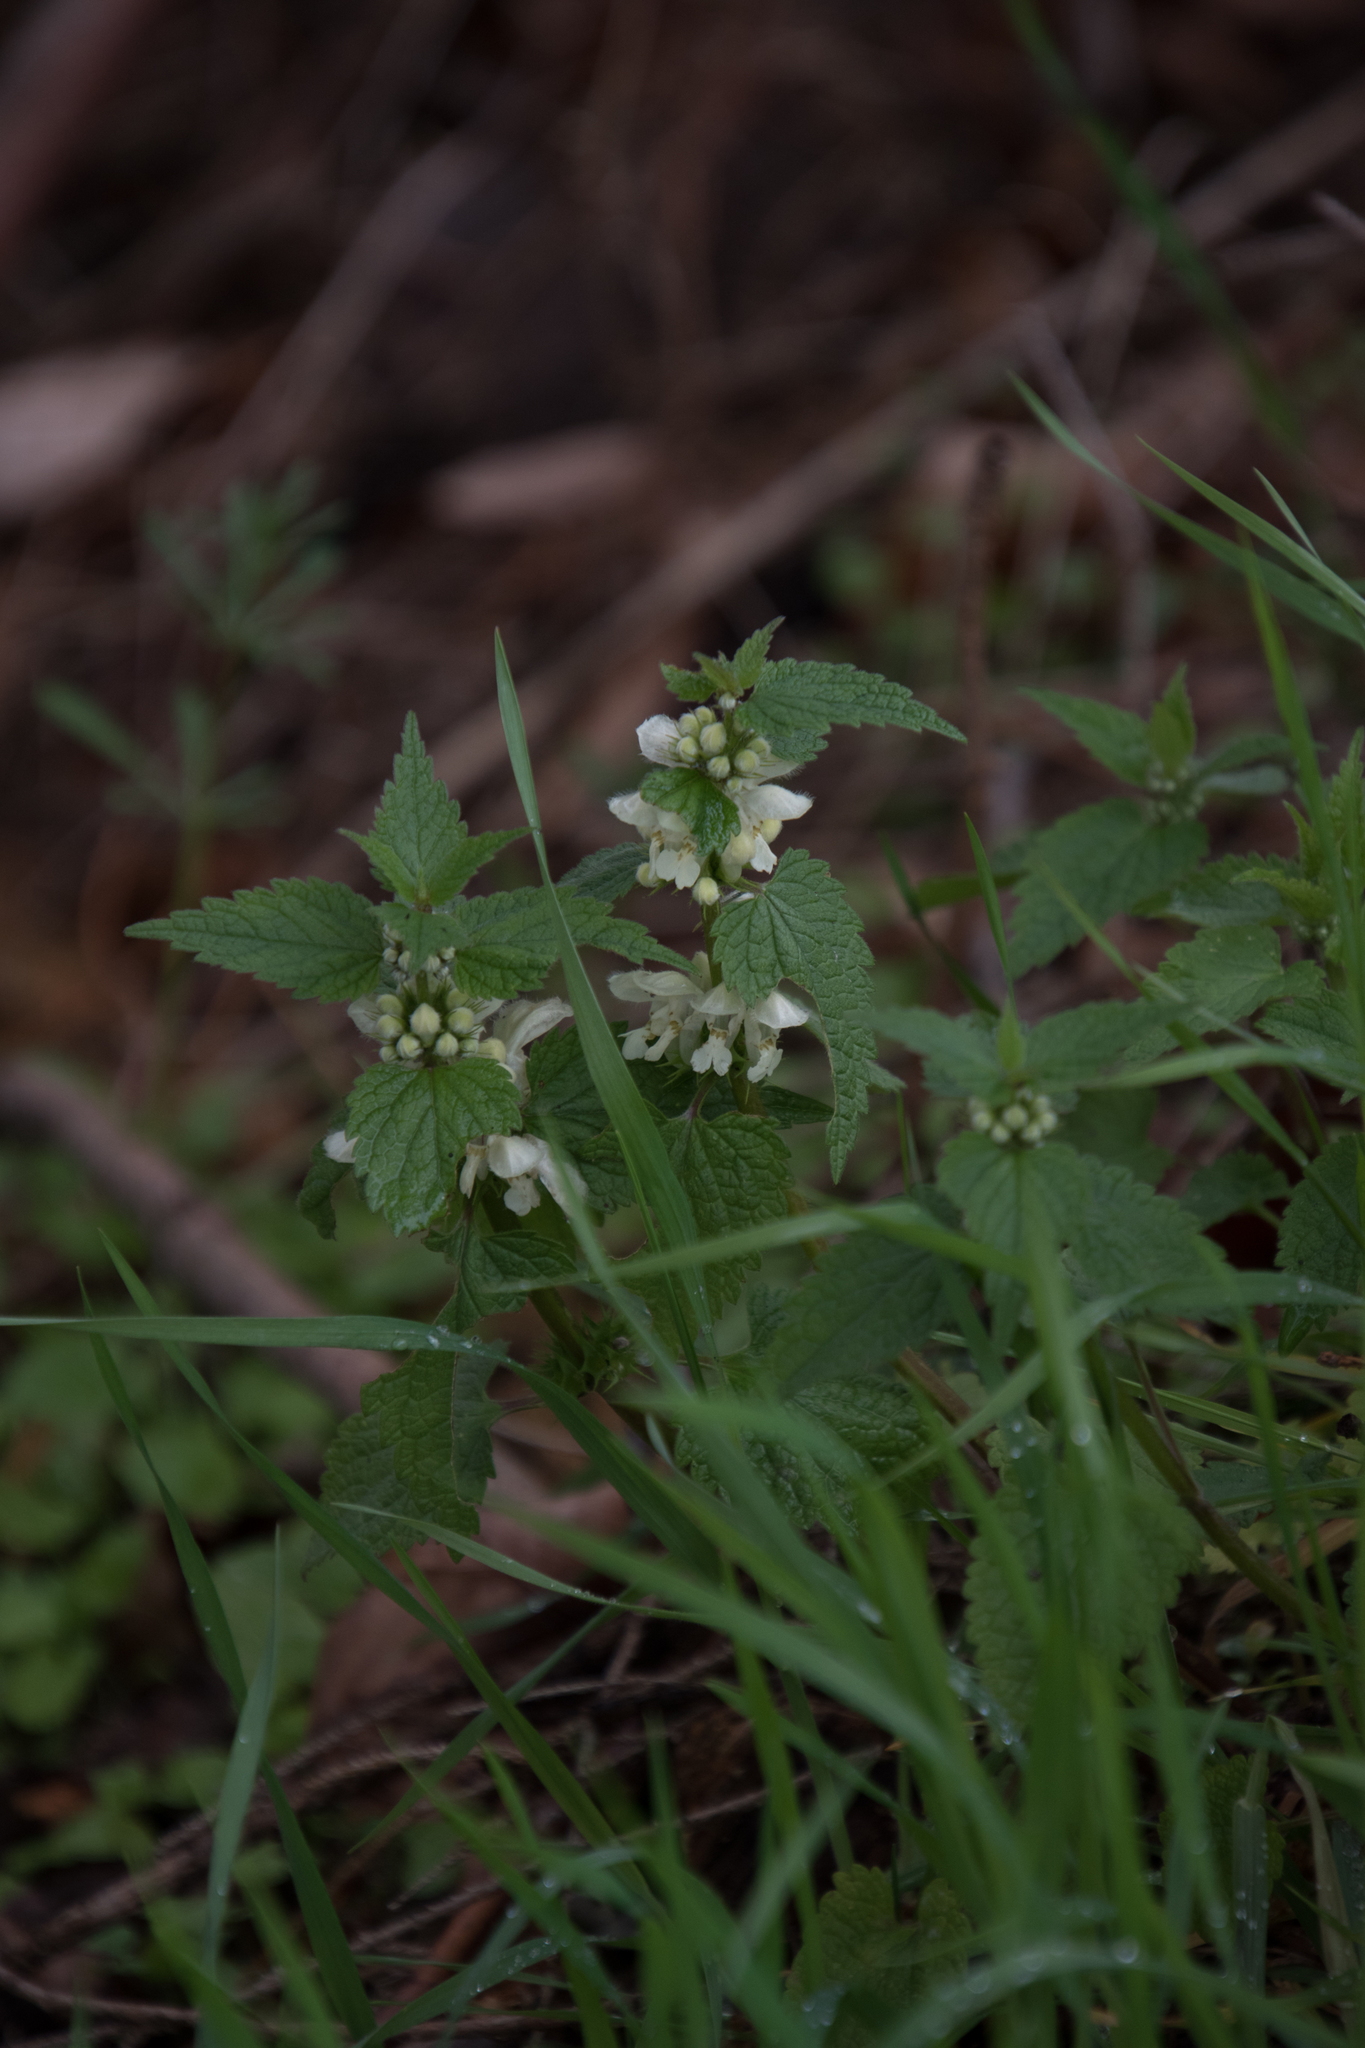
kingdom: Plantae
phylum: Tracheophyta
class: Magnoliopsida
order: Lamiales
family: Lamiaceae
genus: Lamium
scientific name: Lamium album
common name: White dead-nettle
